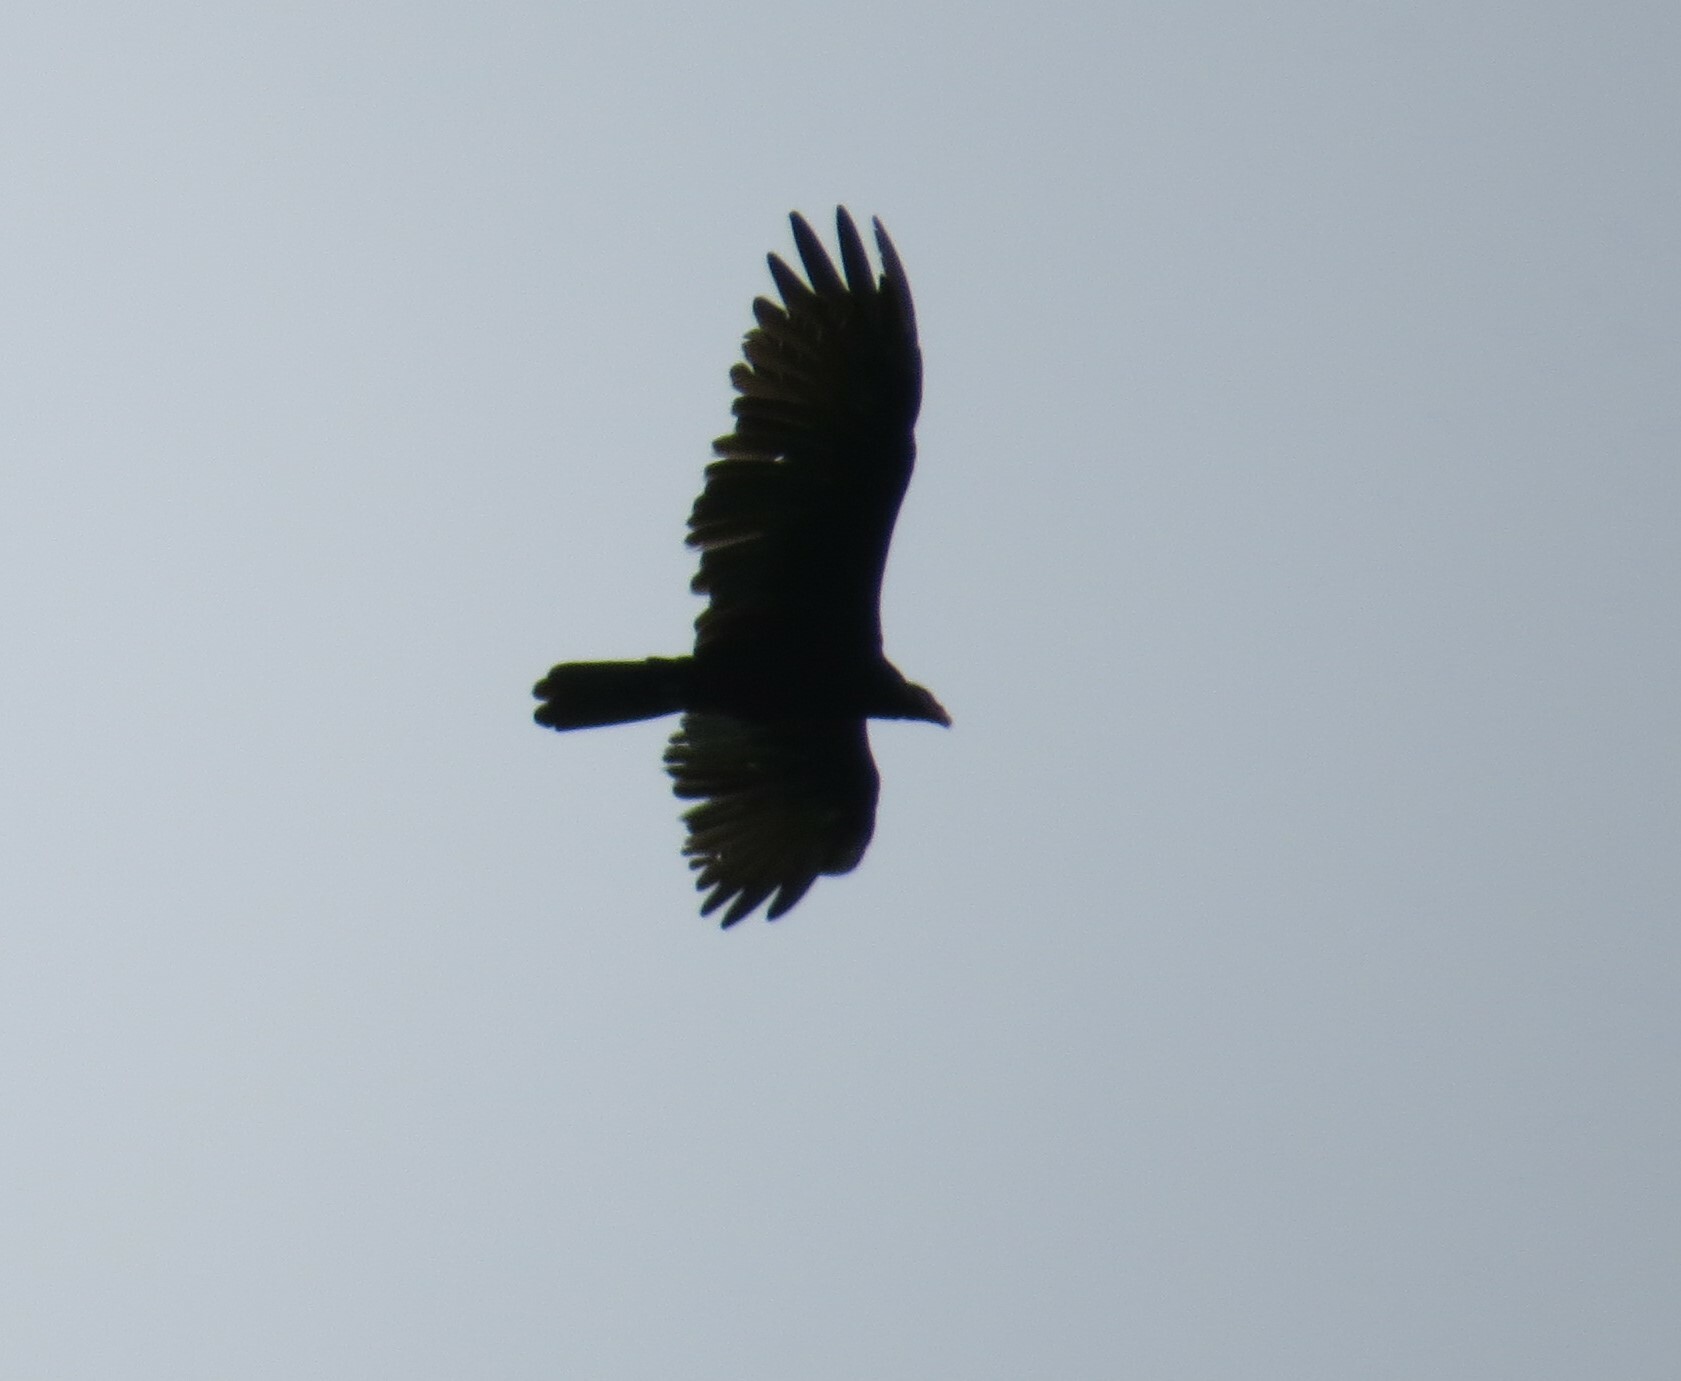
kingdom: Animalia
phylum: Chordata
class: Aves
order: Accipitriformes
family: Cathartidae
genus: Cathartes
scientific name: Cathartes aura
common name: Turkey vulture
